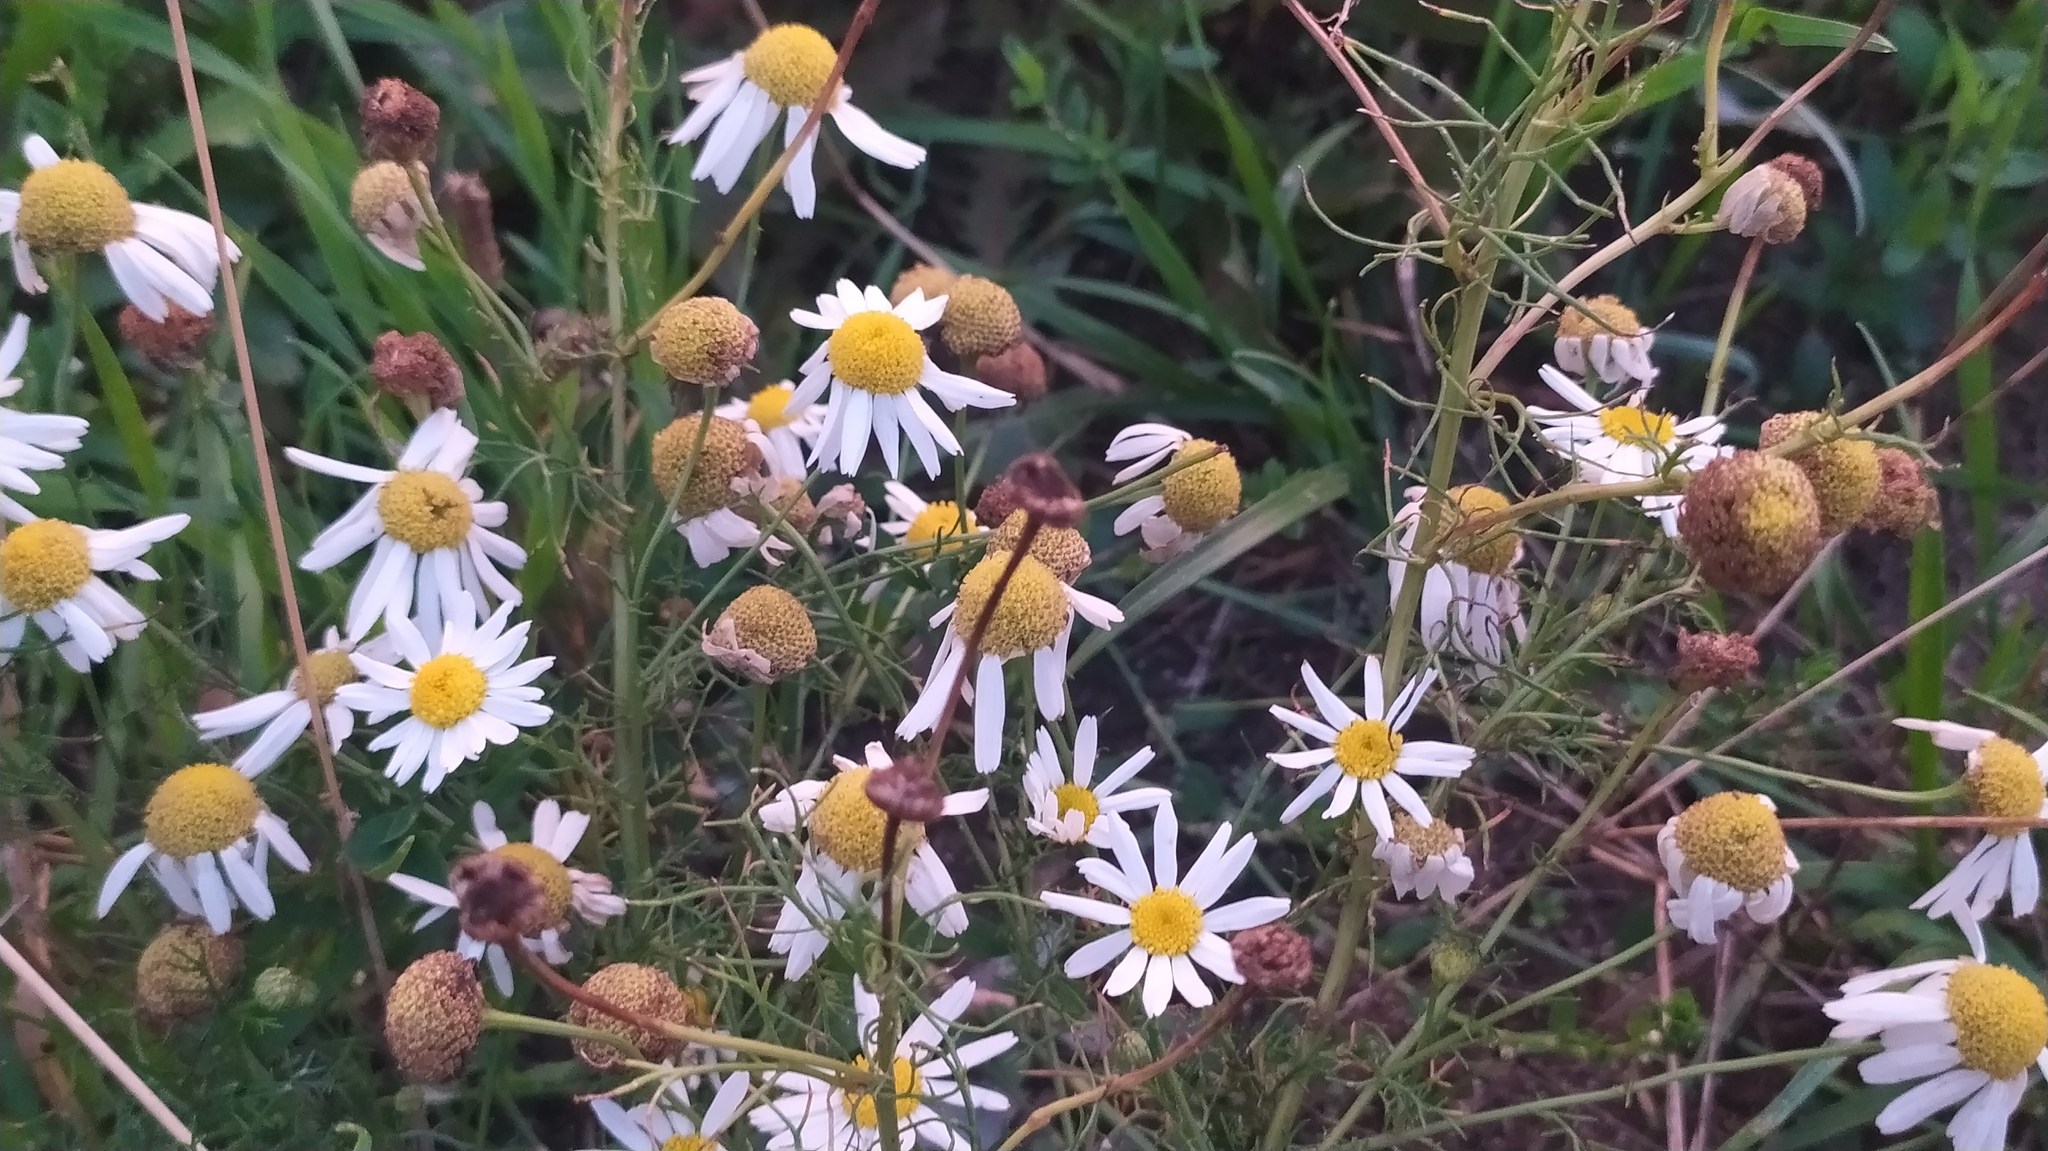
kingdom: Plantae
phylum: Tracheophyta
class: Magnoliopsida
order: Asterales
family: Asteraceae
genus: Tripleurospermum
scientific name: Tripleurospermum inodorum
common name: Scentless mayweed
